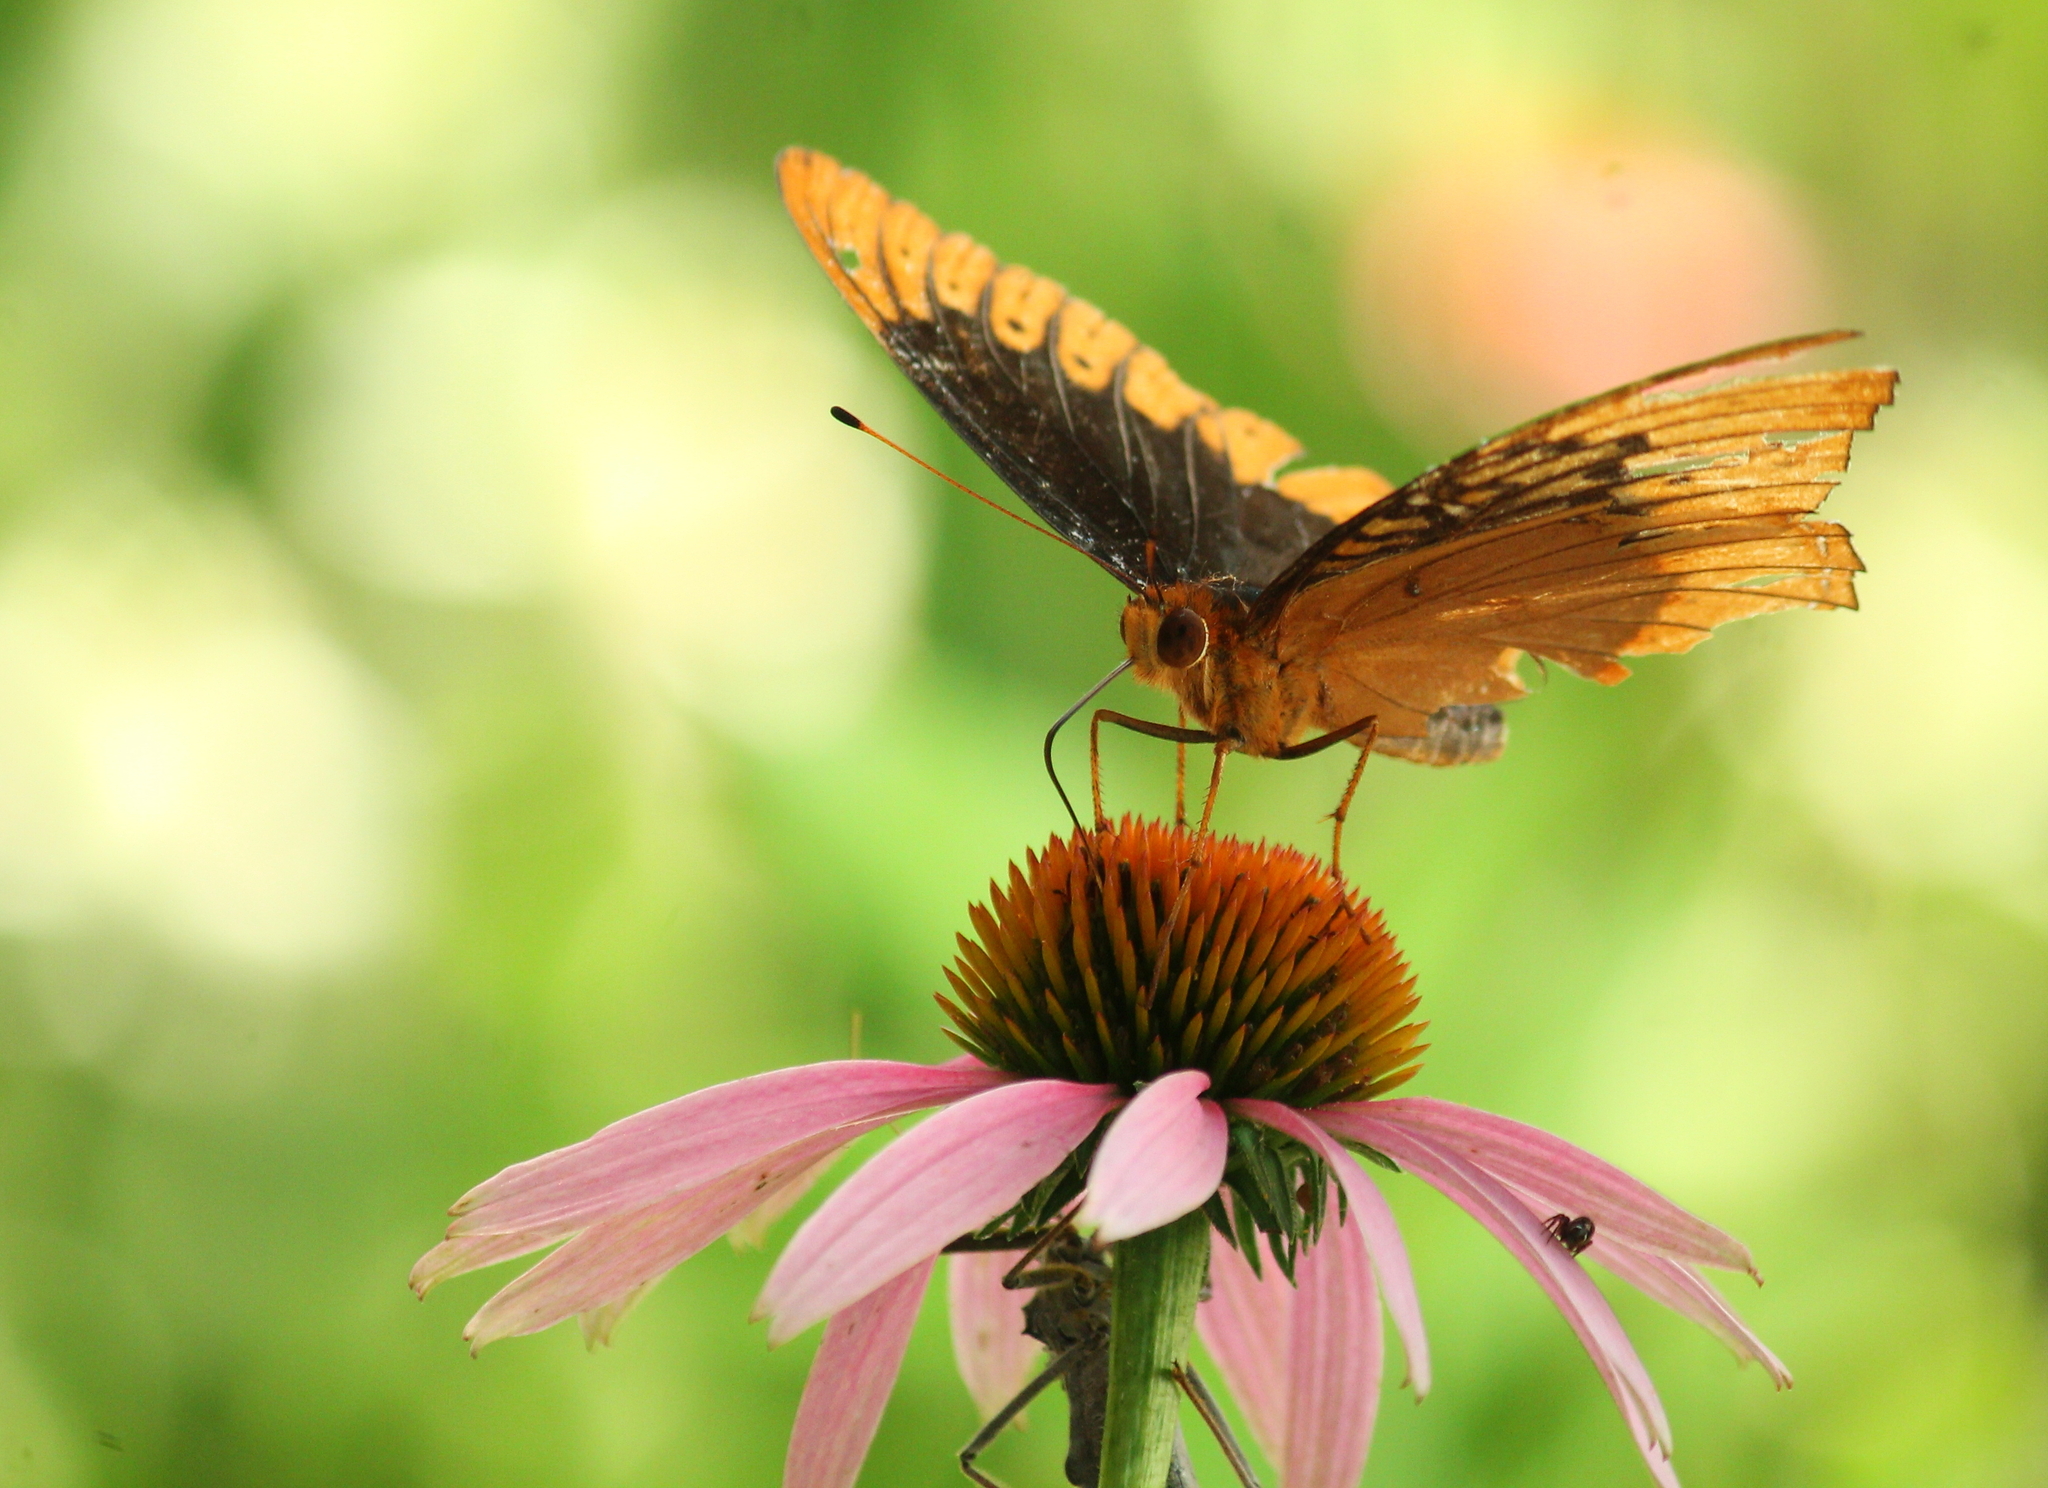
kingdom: Animalia
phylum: Arthropoda
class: Insecta
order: Lepidoptera
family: Nymphalidae
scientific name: Nymphalidae
